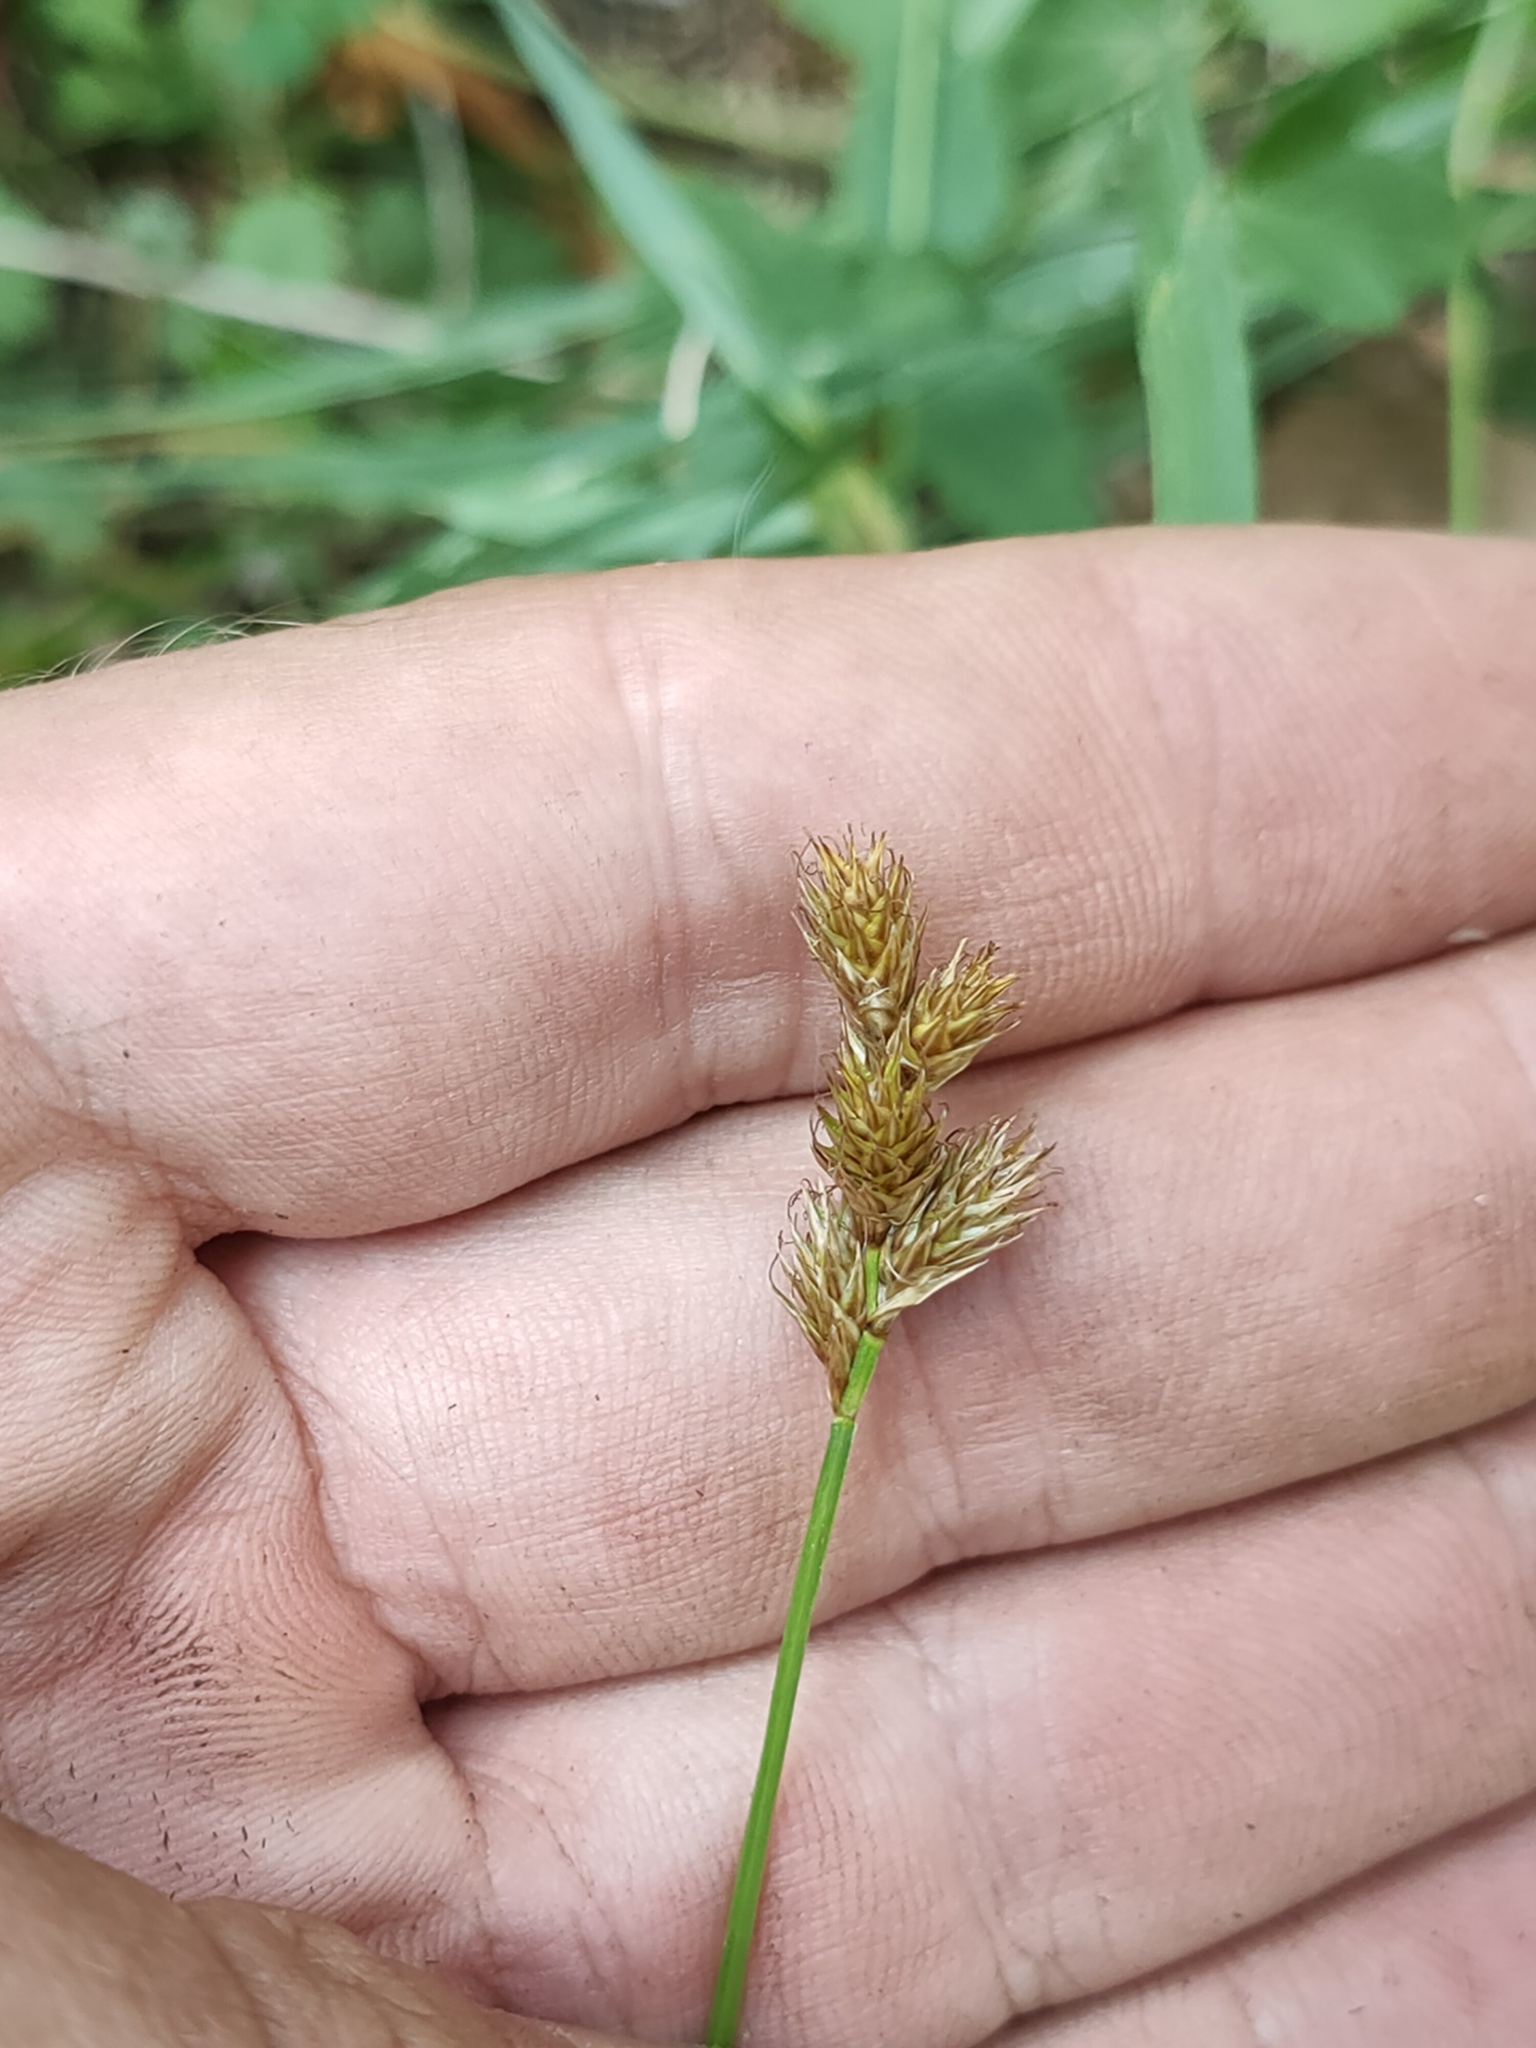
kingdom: Plantae
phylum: Tracheophyta
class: Liliopsida
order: Poales
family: Cyperaceae
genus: Carex
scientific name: Carex leporina
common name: Oval sedge
